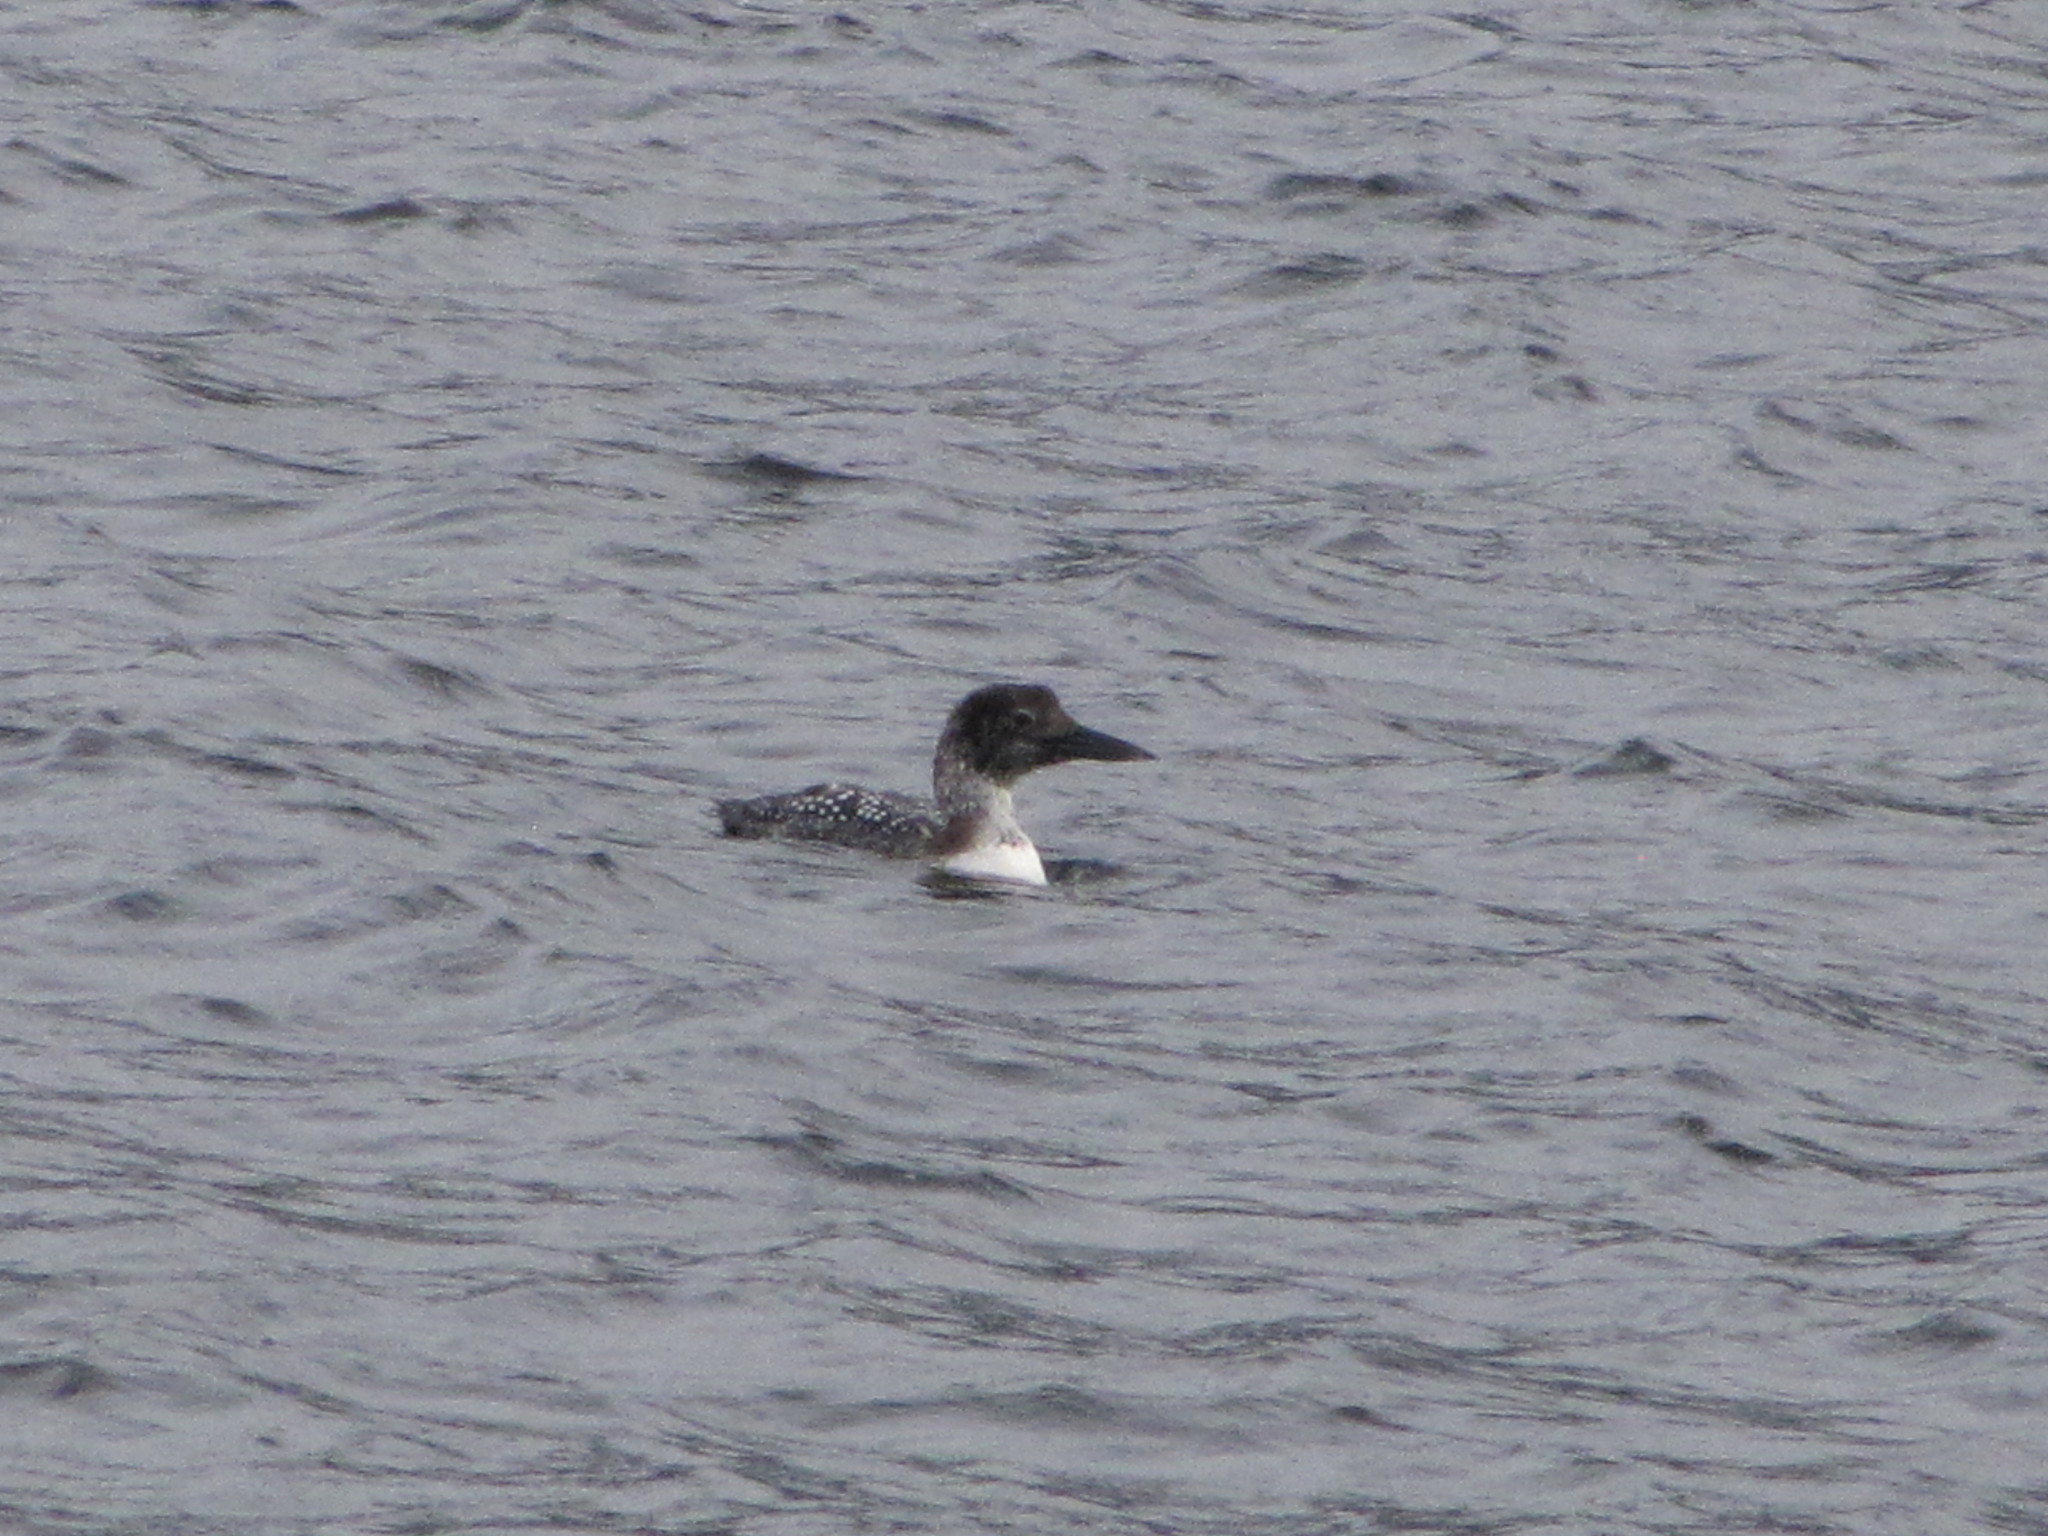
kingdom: Animalia
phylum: Chordata
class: Aves
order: Gaviiformes
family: Gaviidae
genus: Gavia
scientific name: Gavia immer
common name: Common loon
